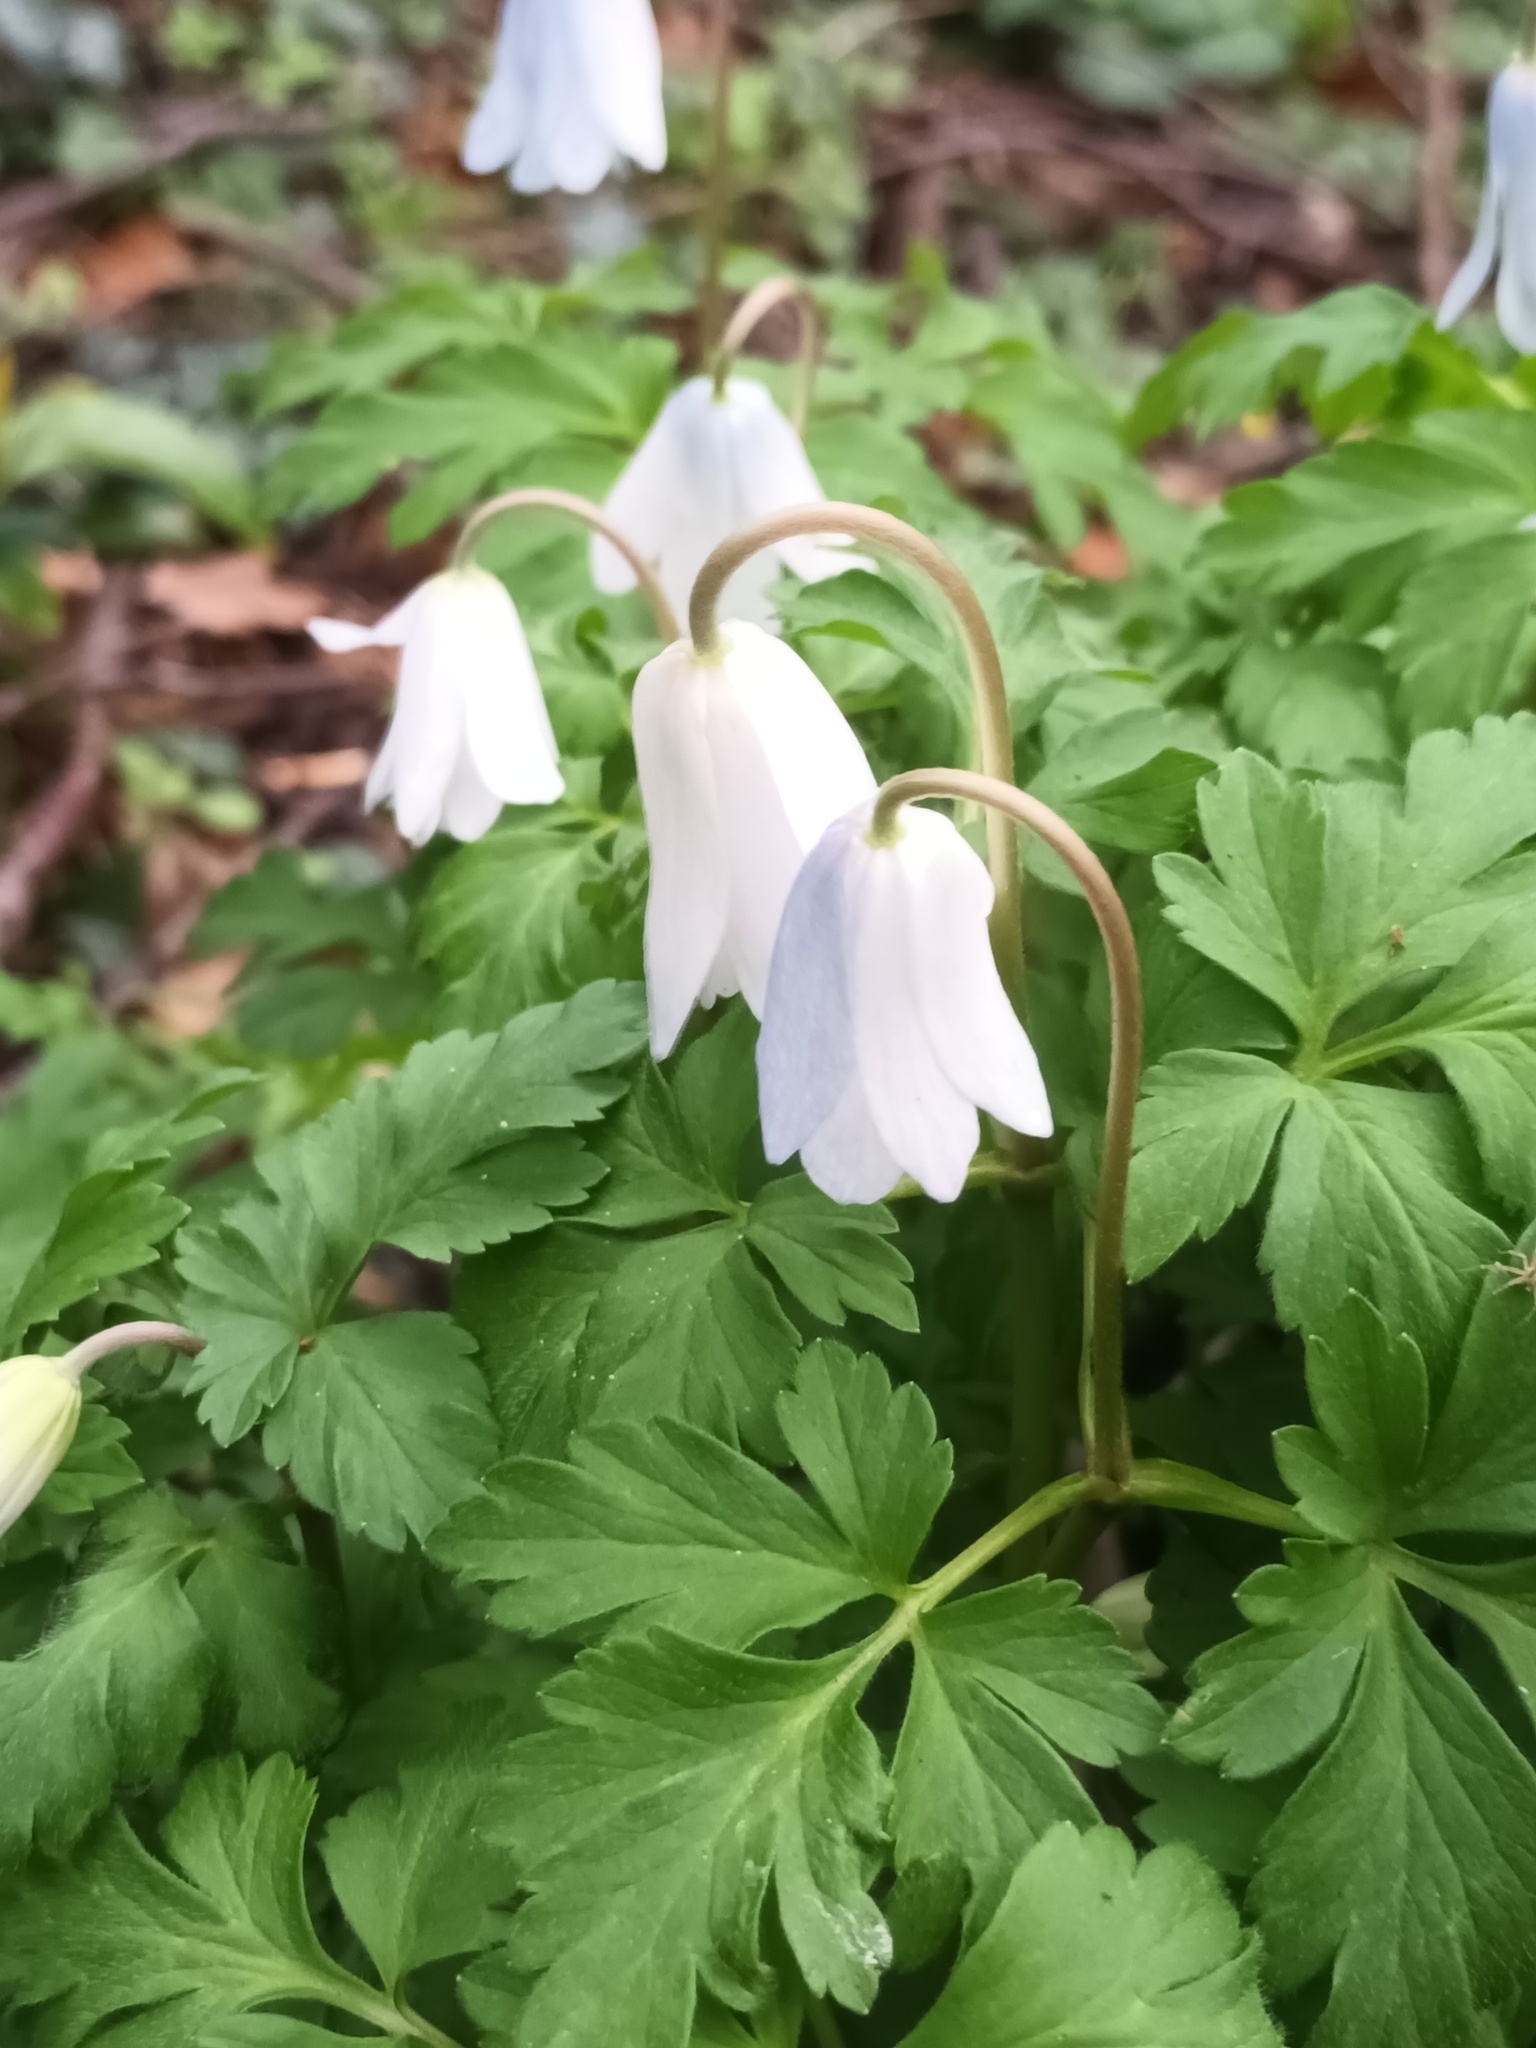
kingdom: Plantae
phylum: Tracheophyta
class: Magnoliopsida
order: Ranunculales
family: Ranunculaceae
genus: Anemone
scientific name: Anemone nemorosa
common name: Wood anemone
